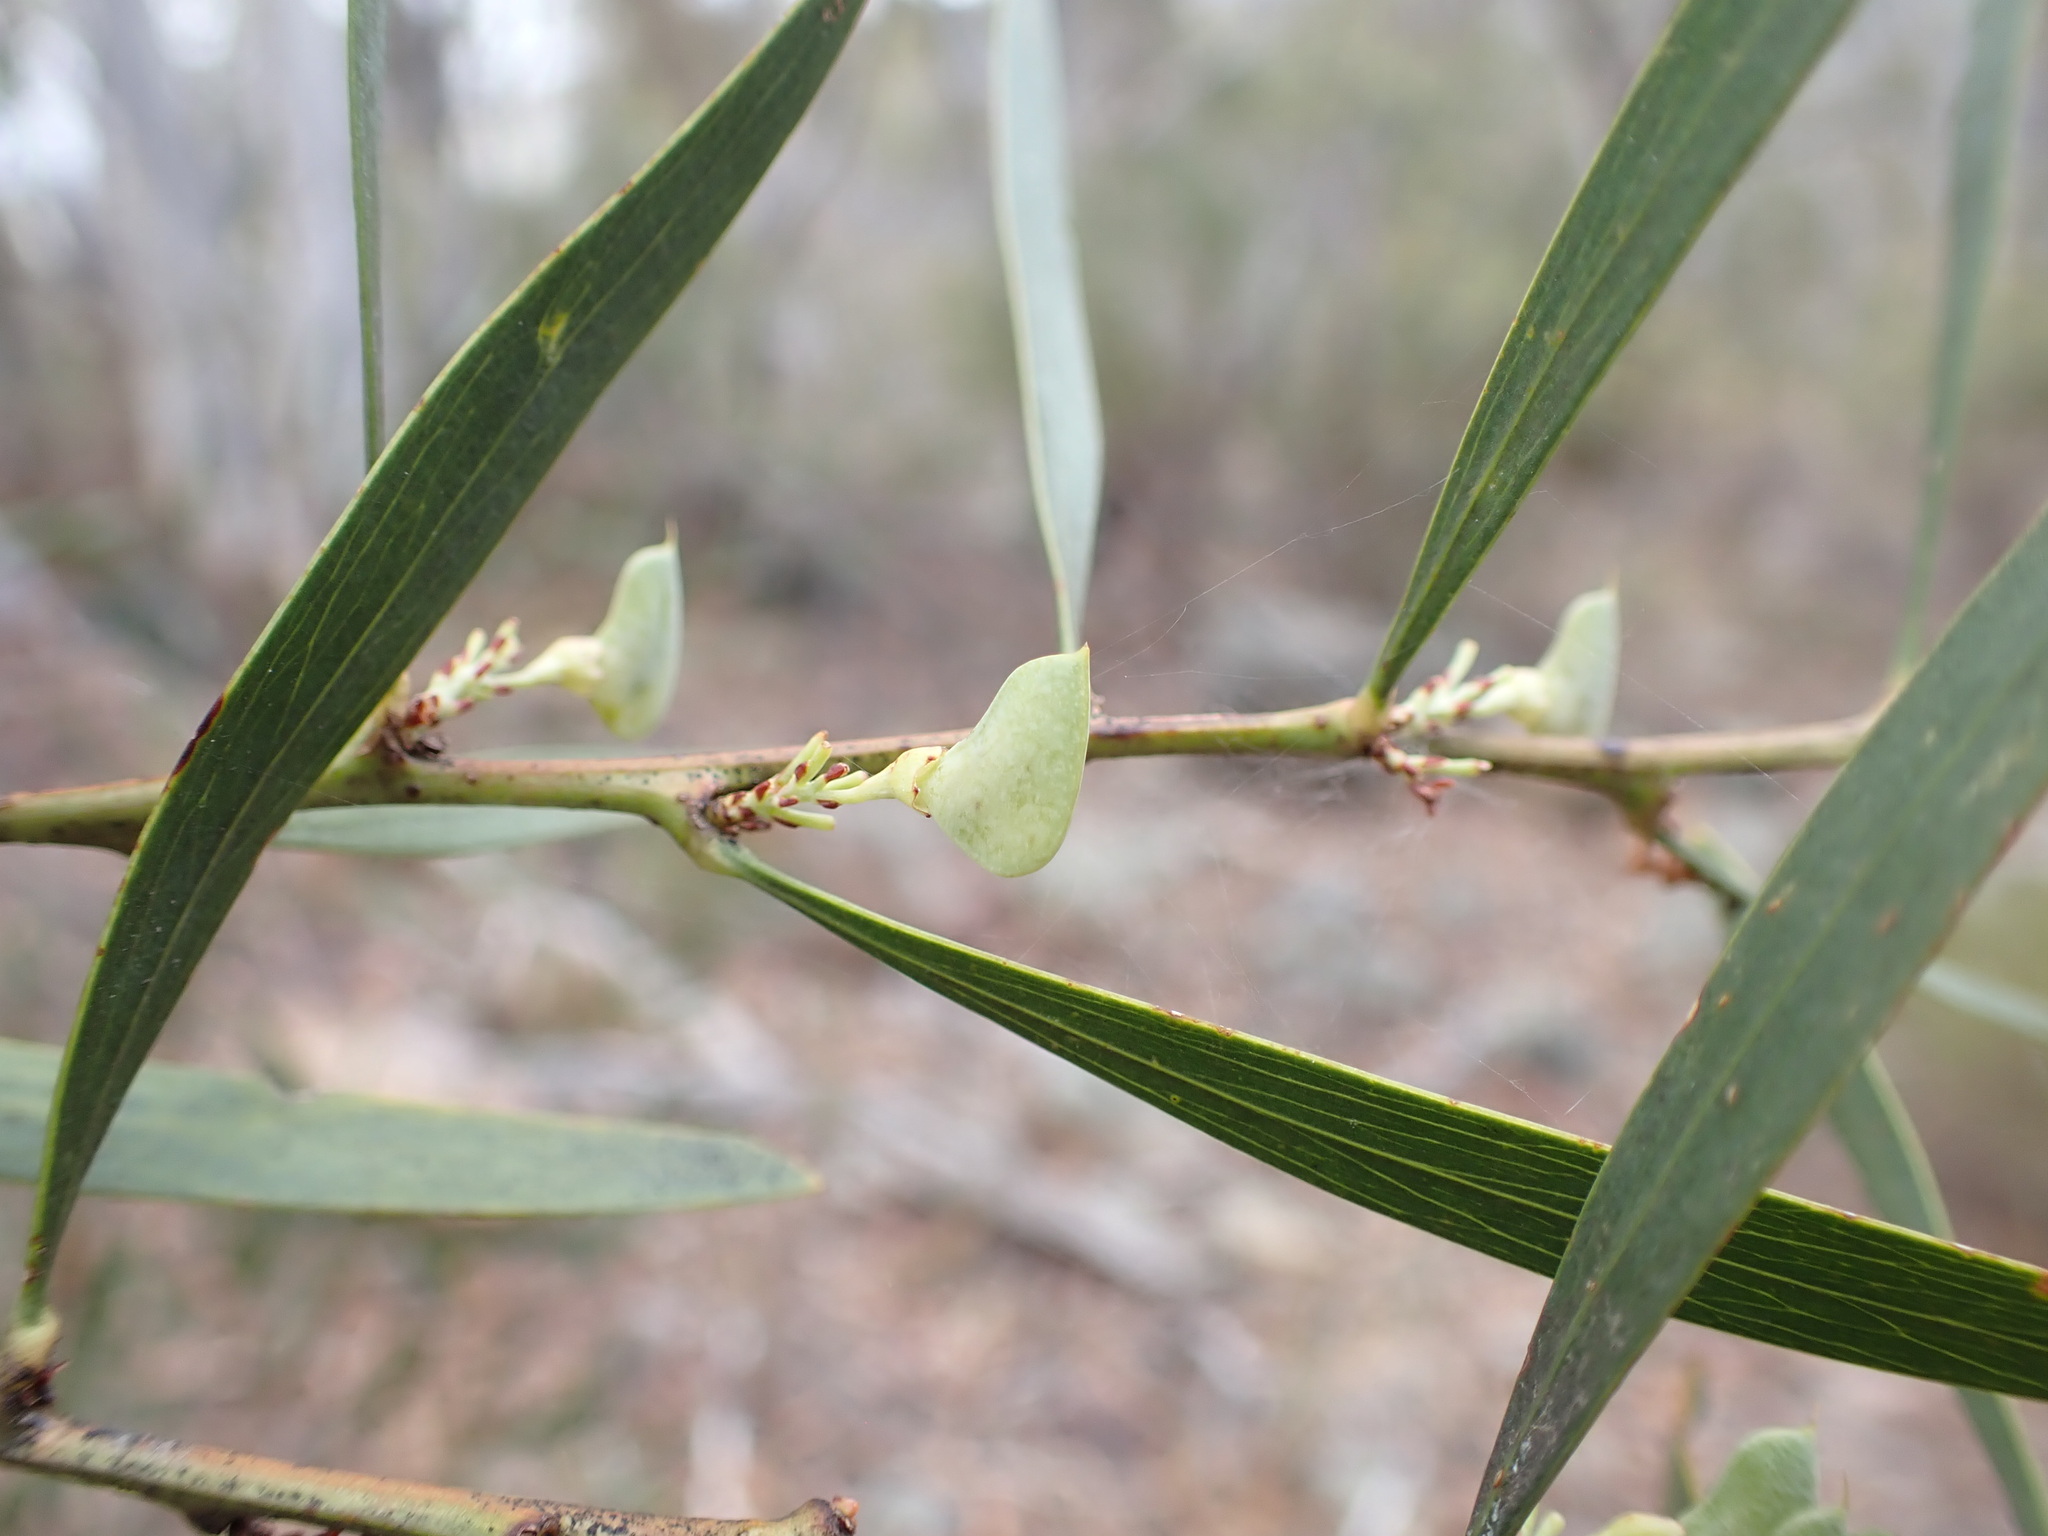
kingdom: Plantae
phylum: Tracheophyta
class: Magnoliopsida
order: Fabales
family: Fabaceae
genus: Daviesia
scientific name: Daviesia mimosoides
